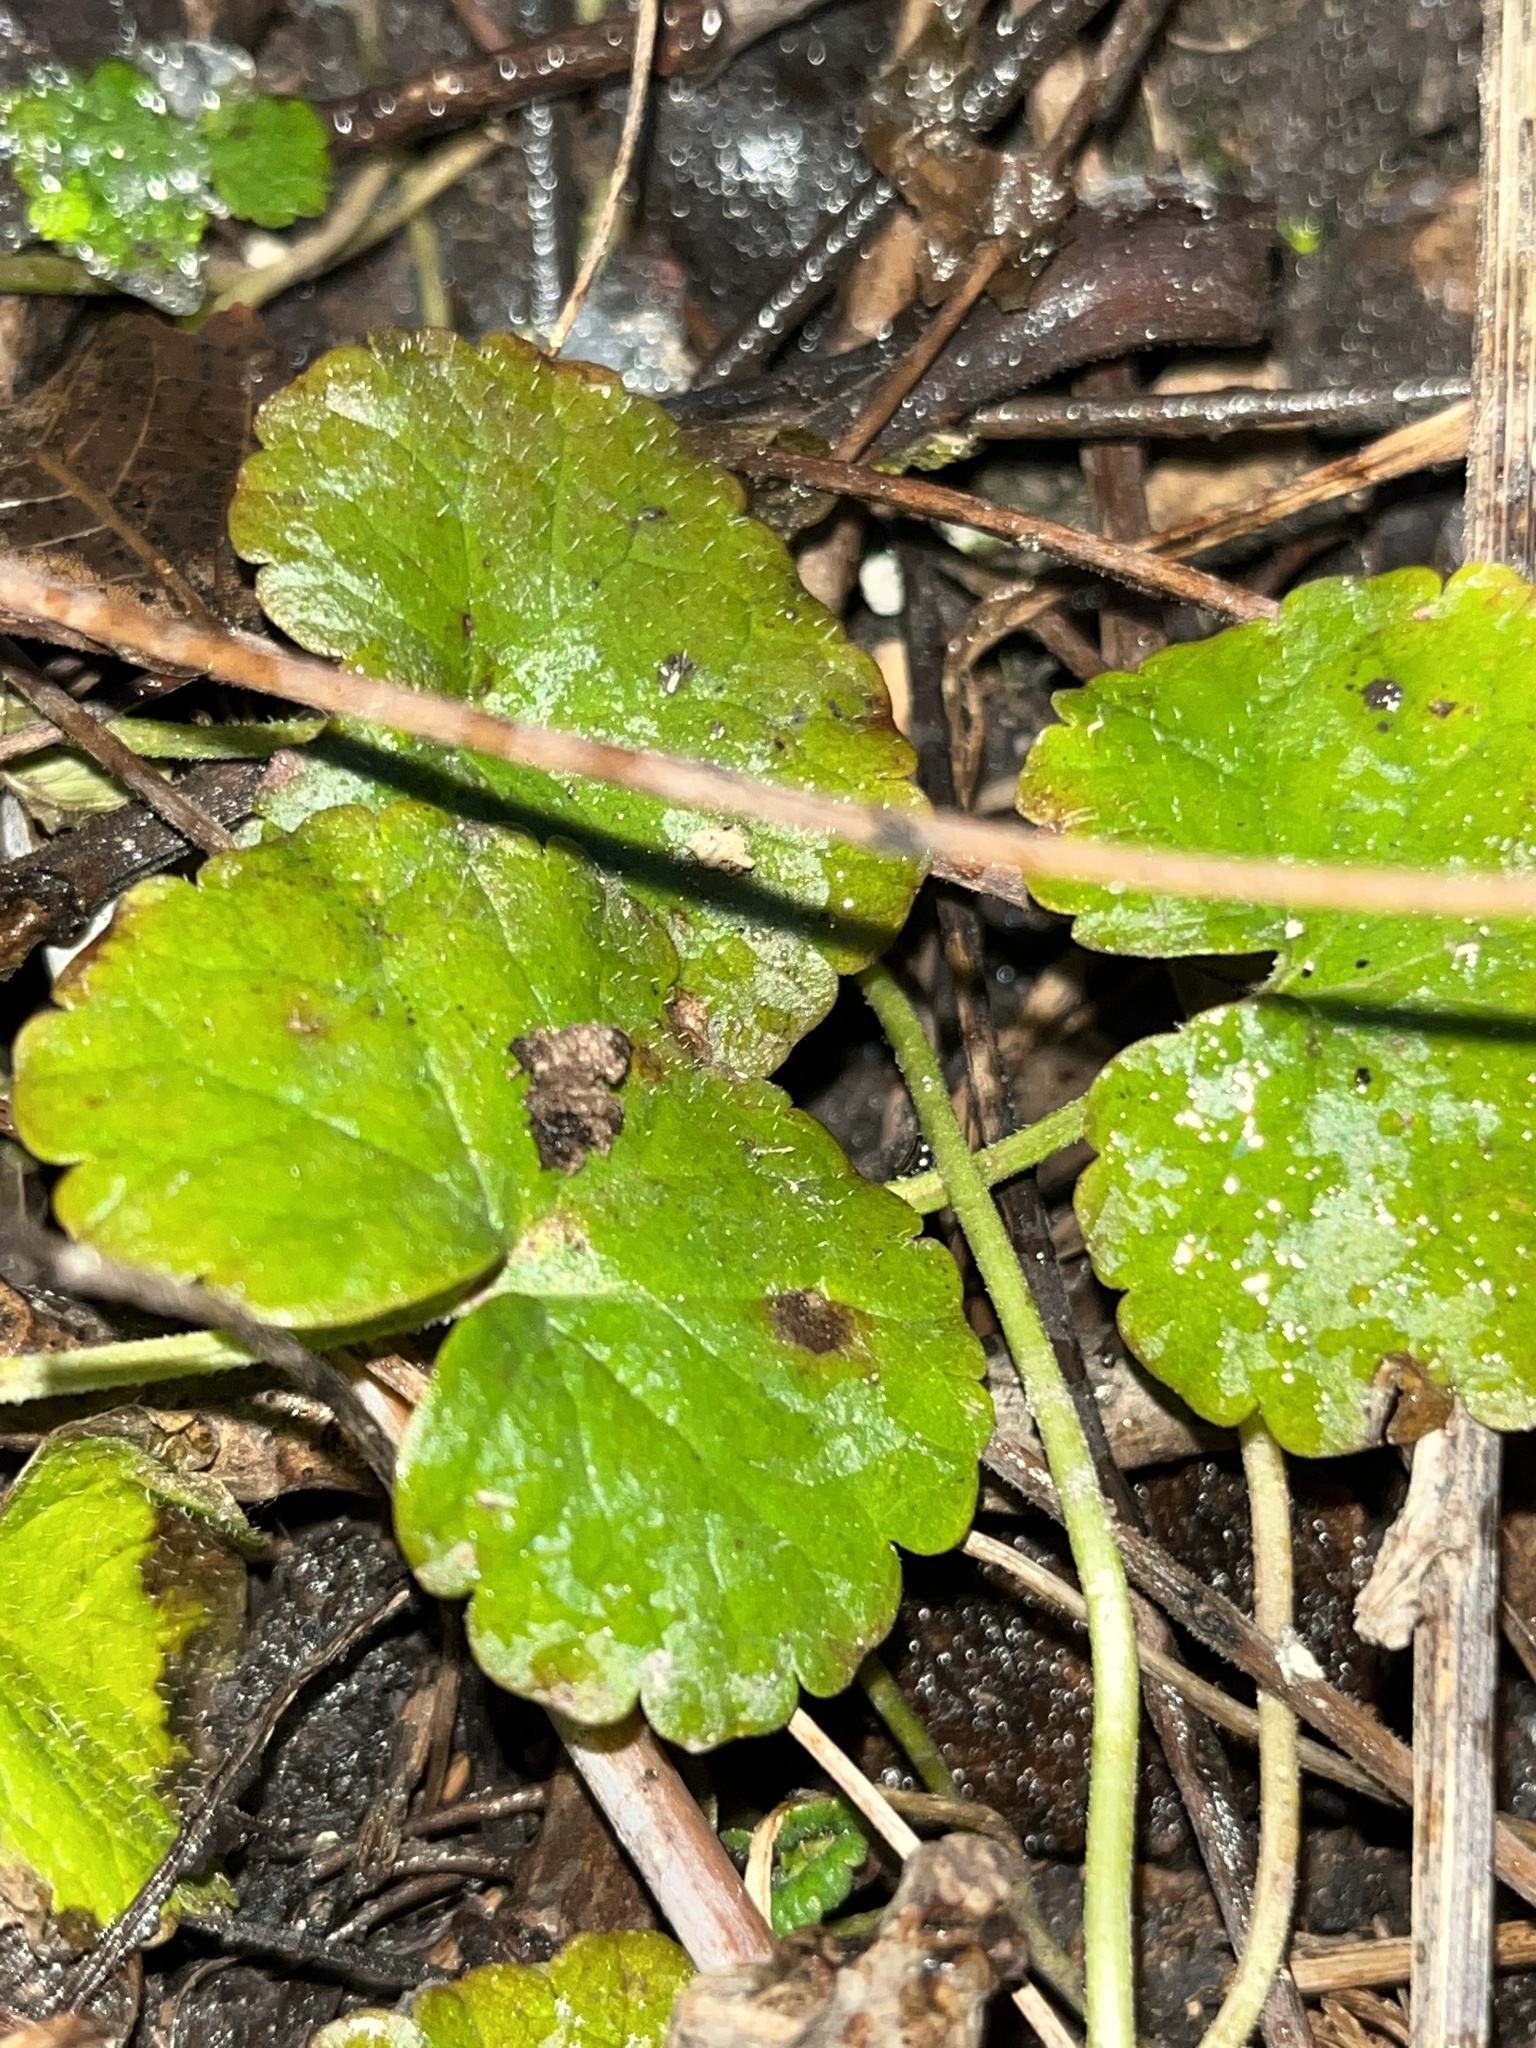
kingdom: Plantae
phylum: Tracheophyta
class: Magnoliopsida
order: Lamiales
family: Lamiaceae
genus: Glechoma
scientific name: Glechoma hederacea
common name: Ground ivy
